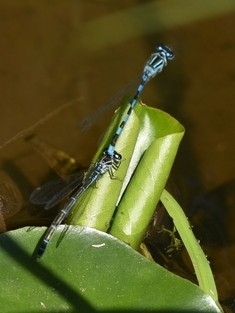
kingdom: Animalia
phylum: Arthropoda
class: Insecta
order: Odonata
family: Coenagrionidae
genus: Coenagrion
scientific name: Coenagrion mercuriale
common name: Southern damselfly
